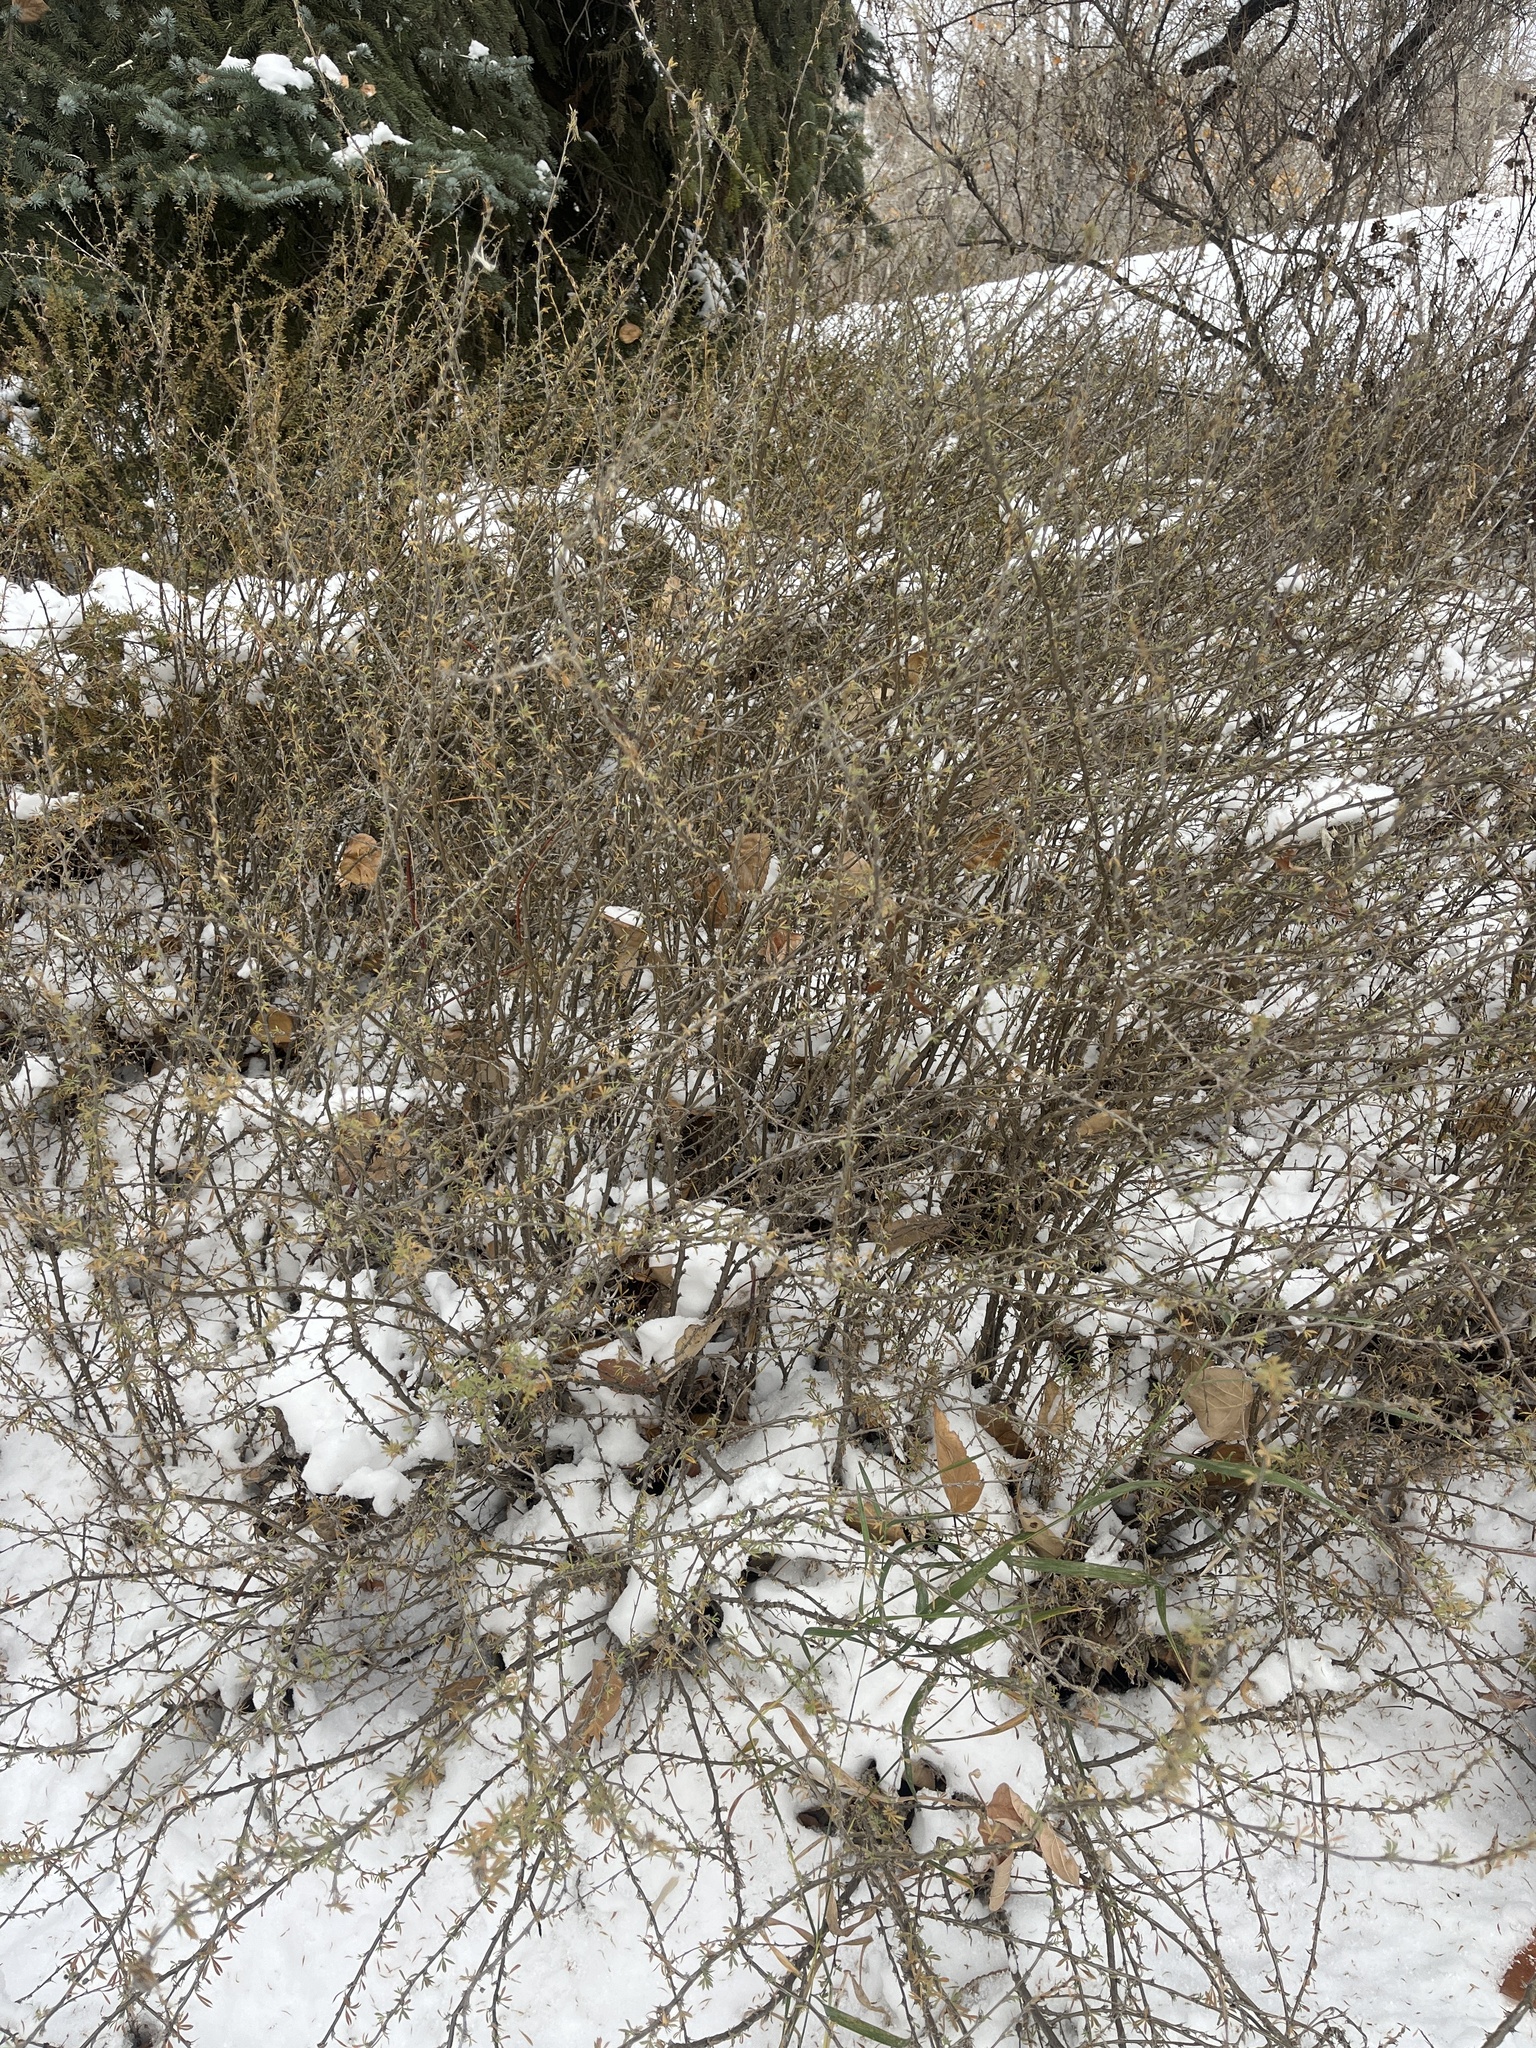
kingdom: Plantae
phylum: Tracheophyta
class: Magnoliopsida
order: Fabales
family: Fabaceae
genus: Caragana
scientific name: Caragana pygmaea
